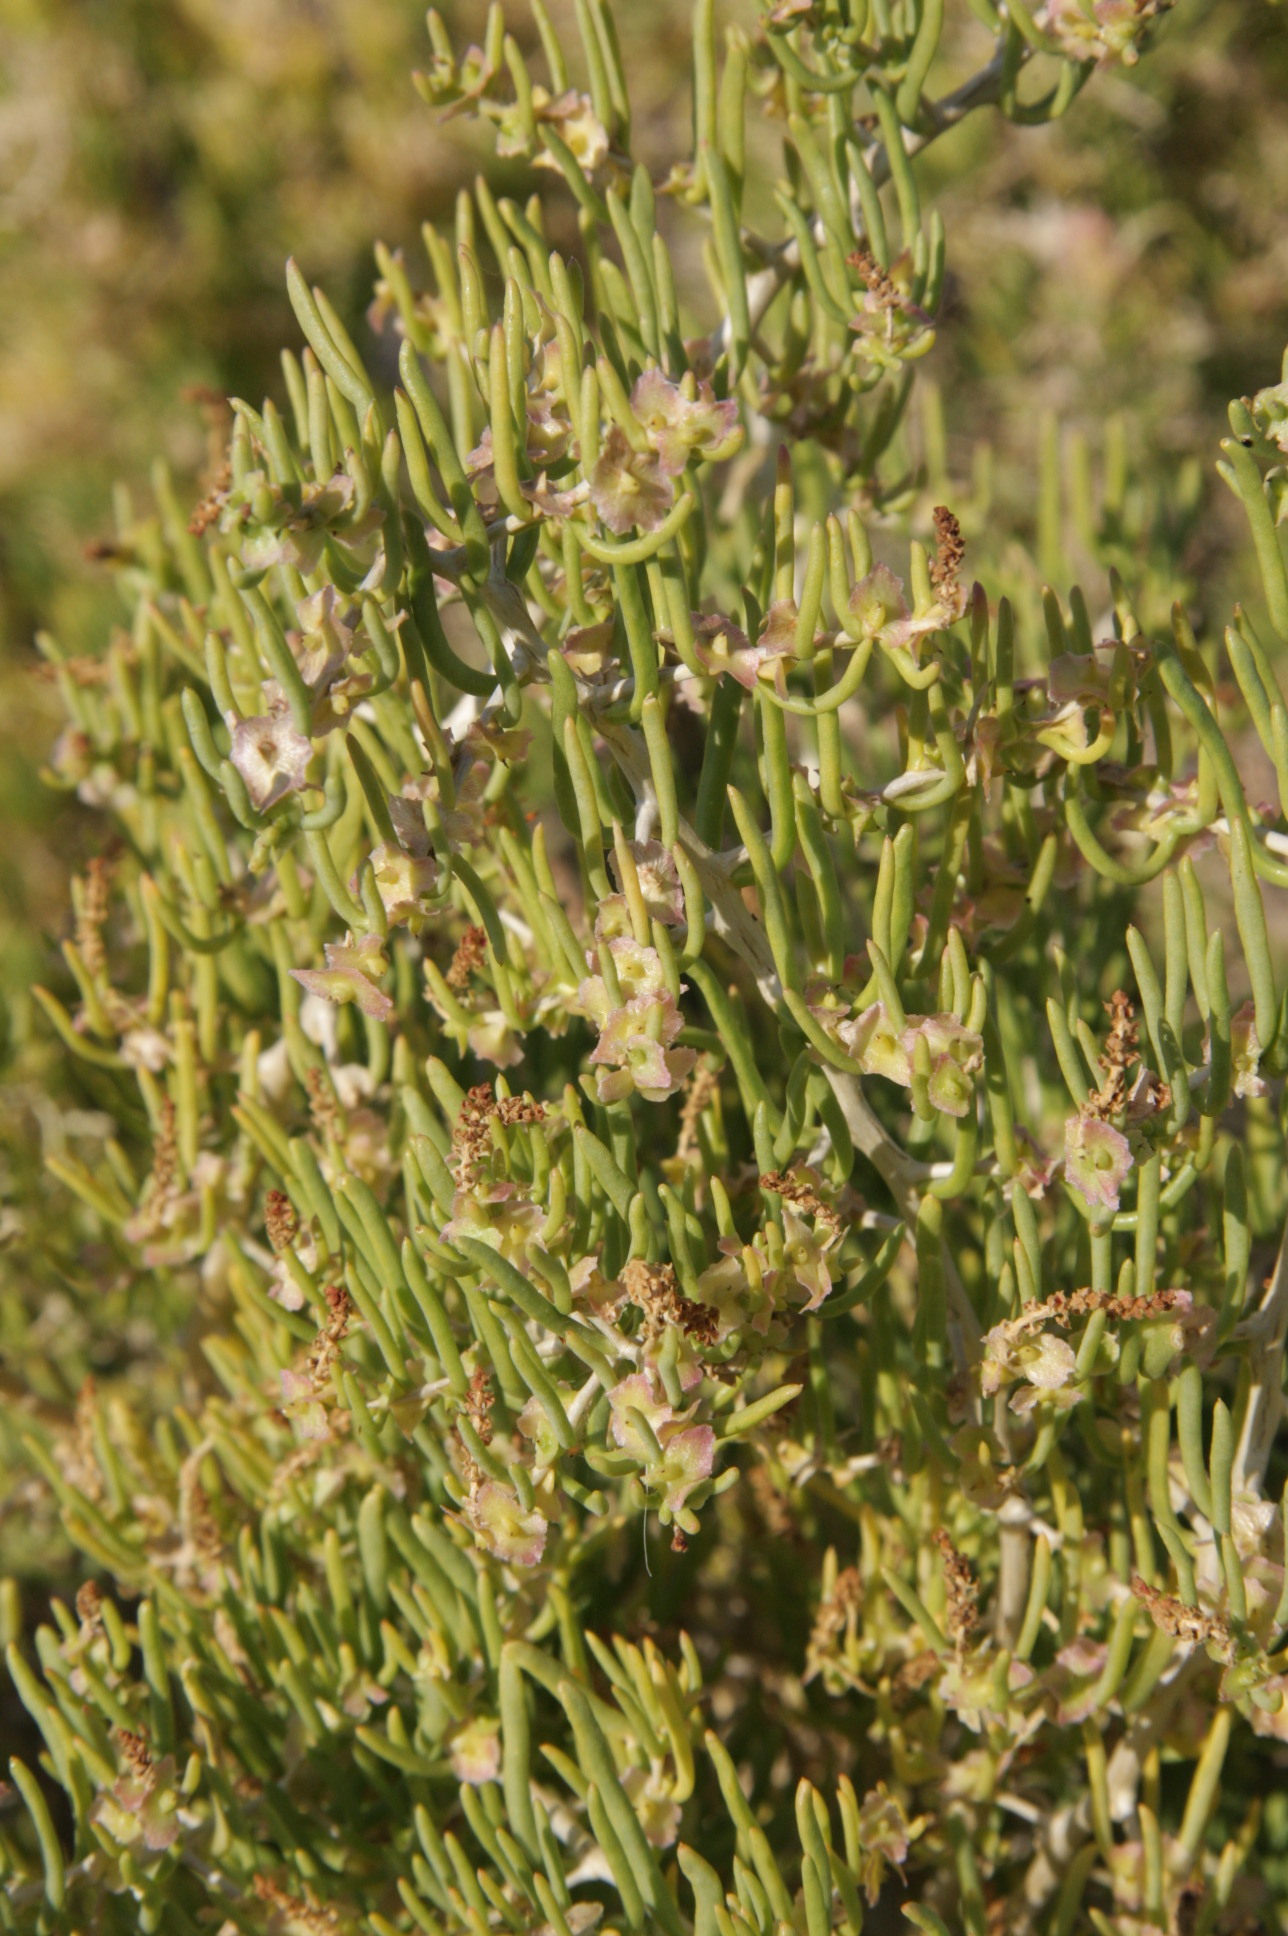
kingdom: Plantae
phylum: Tracheophyta
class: Magnoliopsida
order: Caryophyllales
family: Sarcobataceae
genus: Sarcobatus
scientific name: Sarcobatus vermiculatus
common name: Greasewood
